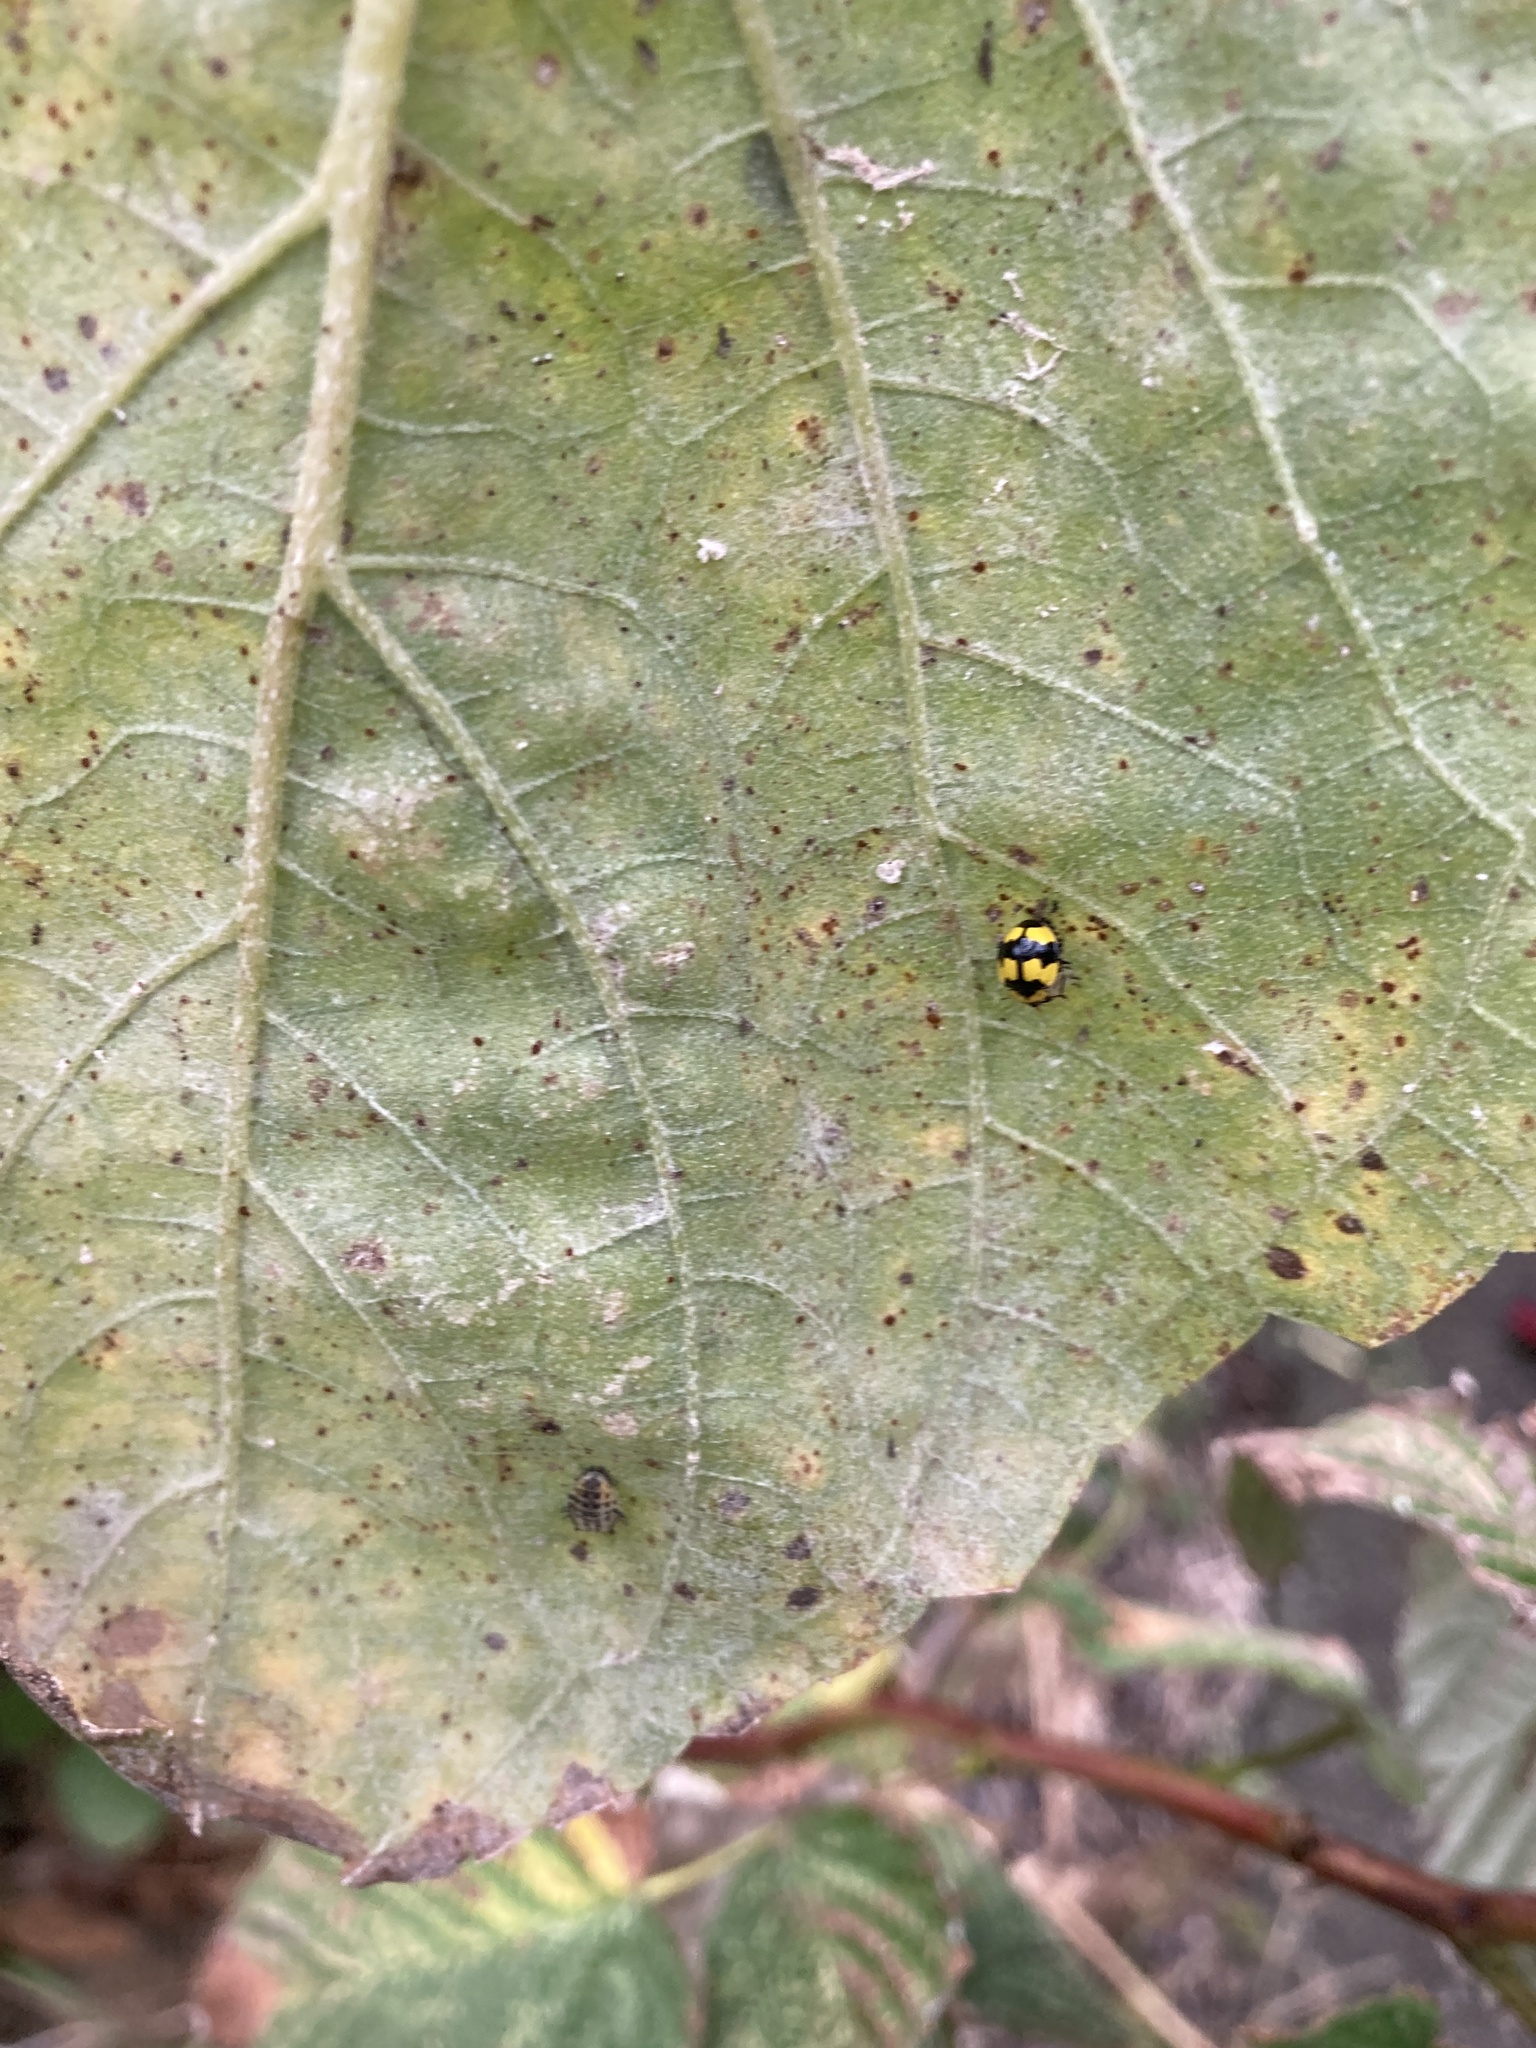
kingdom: Animalia
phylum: Arthropoda
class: Insecta
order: Coleoptera
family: Coccinellidae
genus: Illeis
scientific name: Illeis galbula
